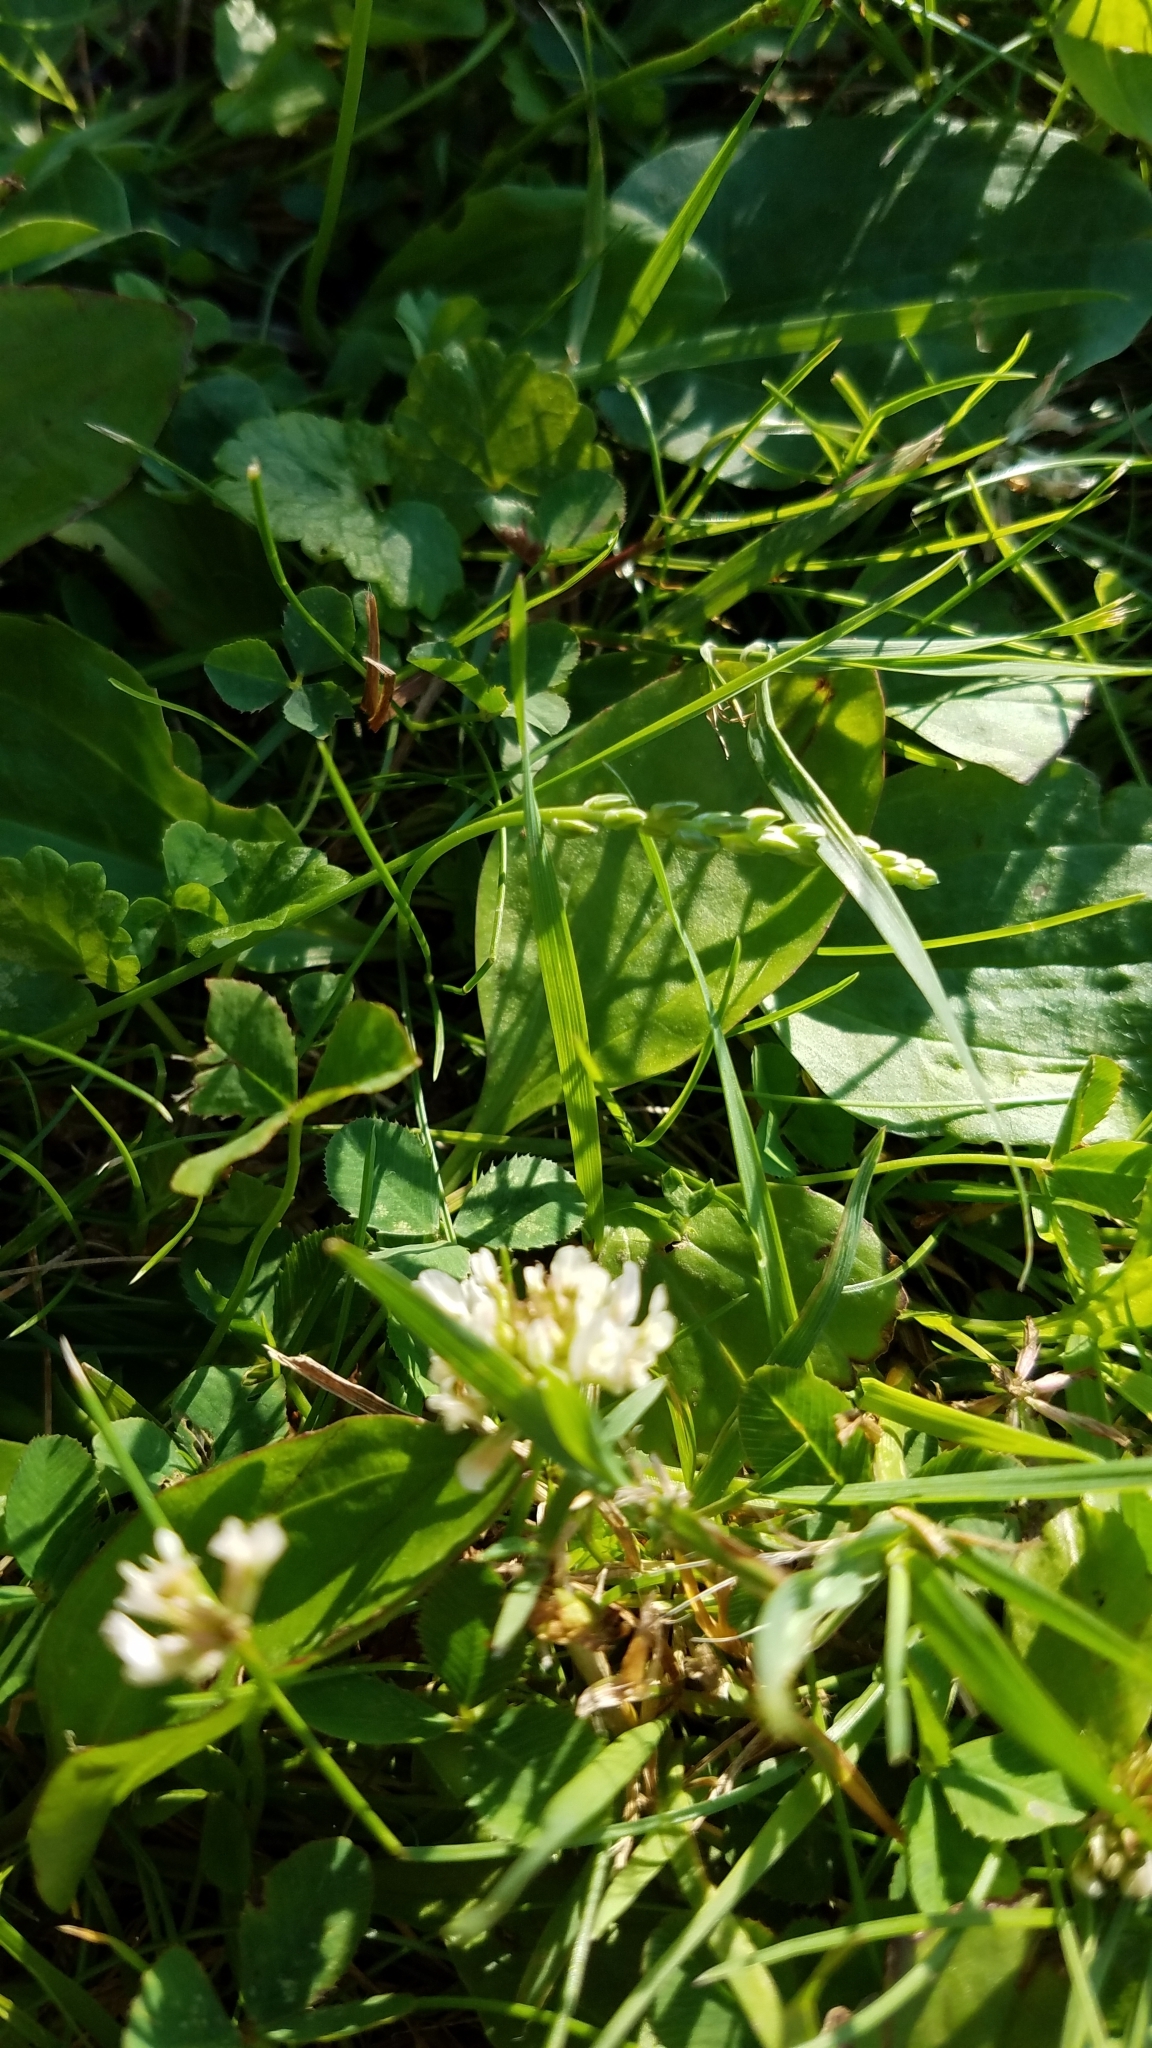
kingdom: Animalia
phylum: Arthropoda
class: Insecta
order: Hymenoptera
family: Apidae
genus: Apis
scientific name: Apis mellifera
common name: Honey bee
